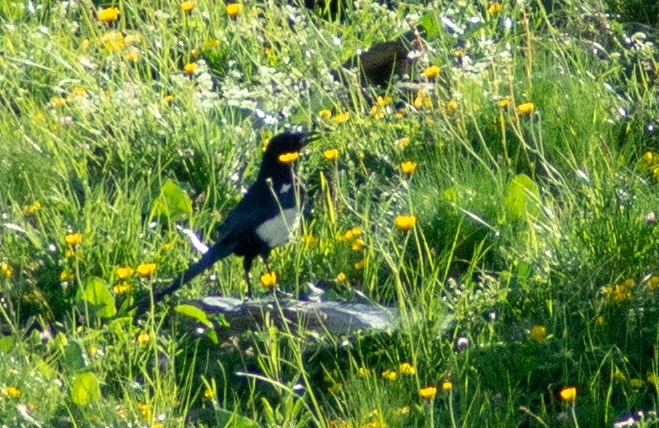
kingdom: Animalia
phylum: Chordata
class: Aves
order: Passeriformes
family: Corvidae
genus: Pica
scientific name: Pica pica
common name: Eurasian magpie
